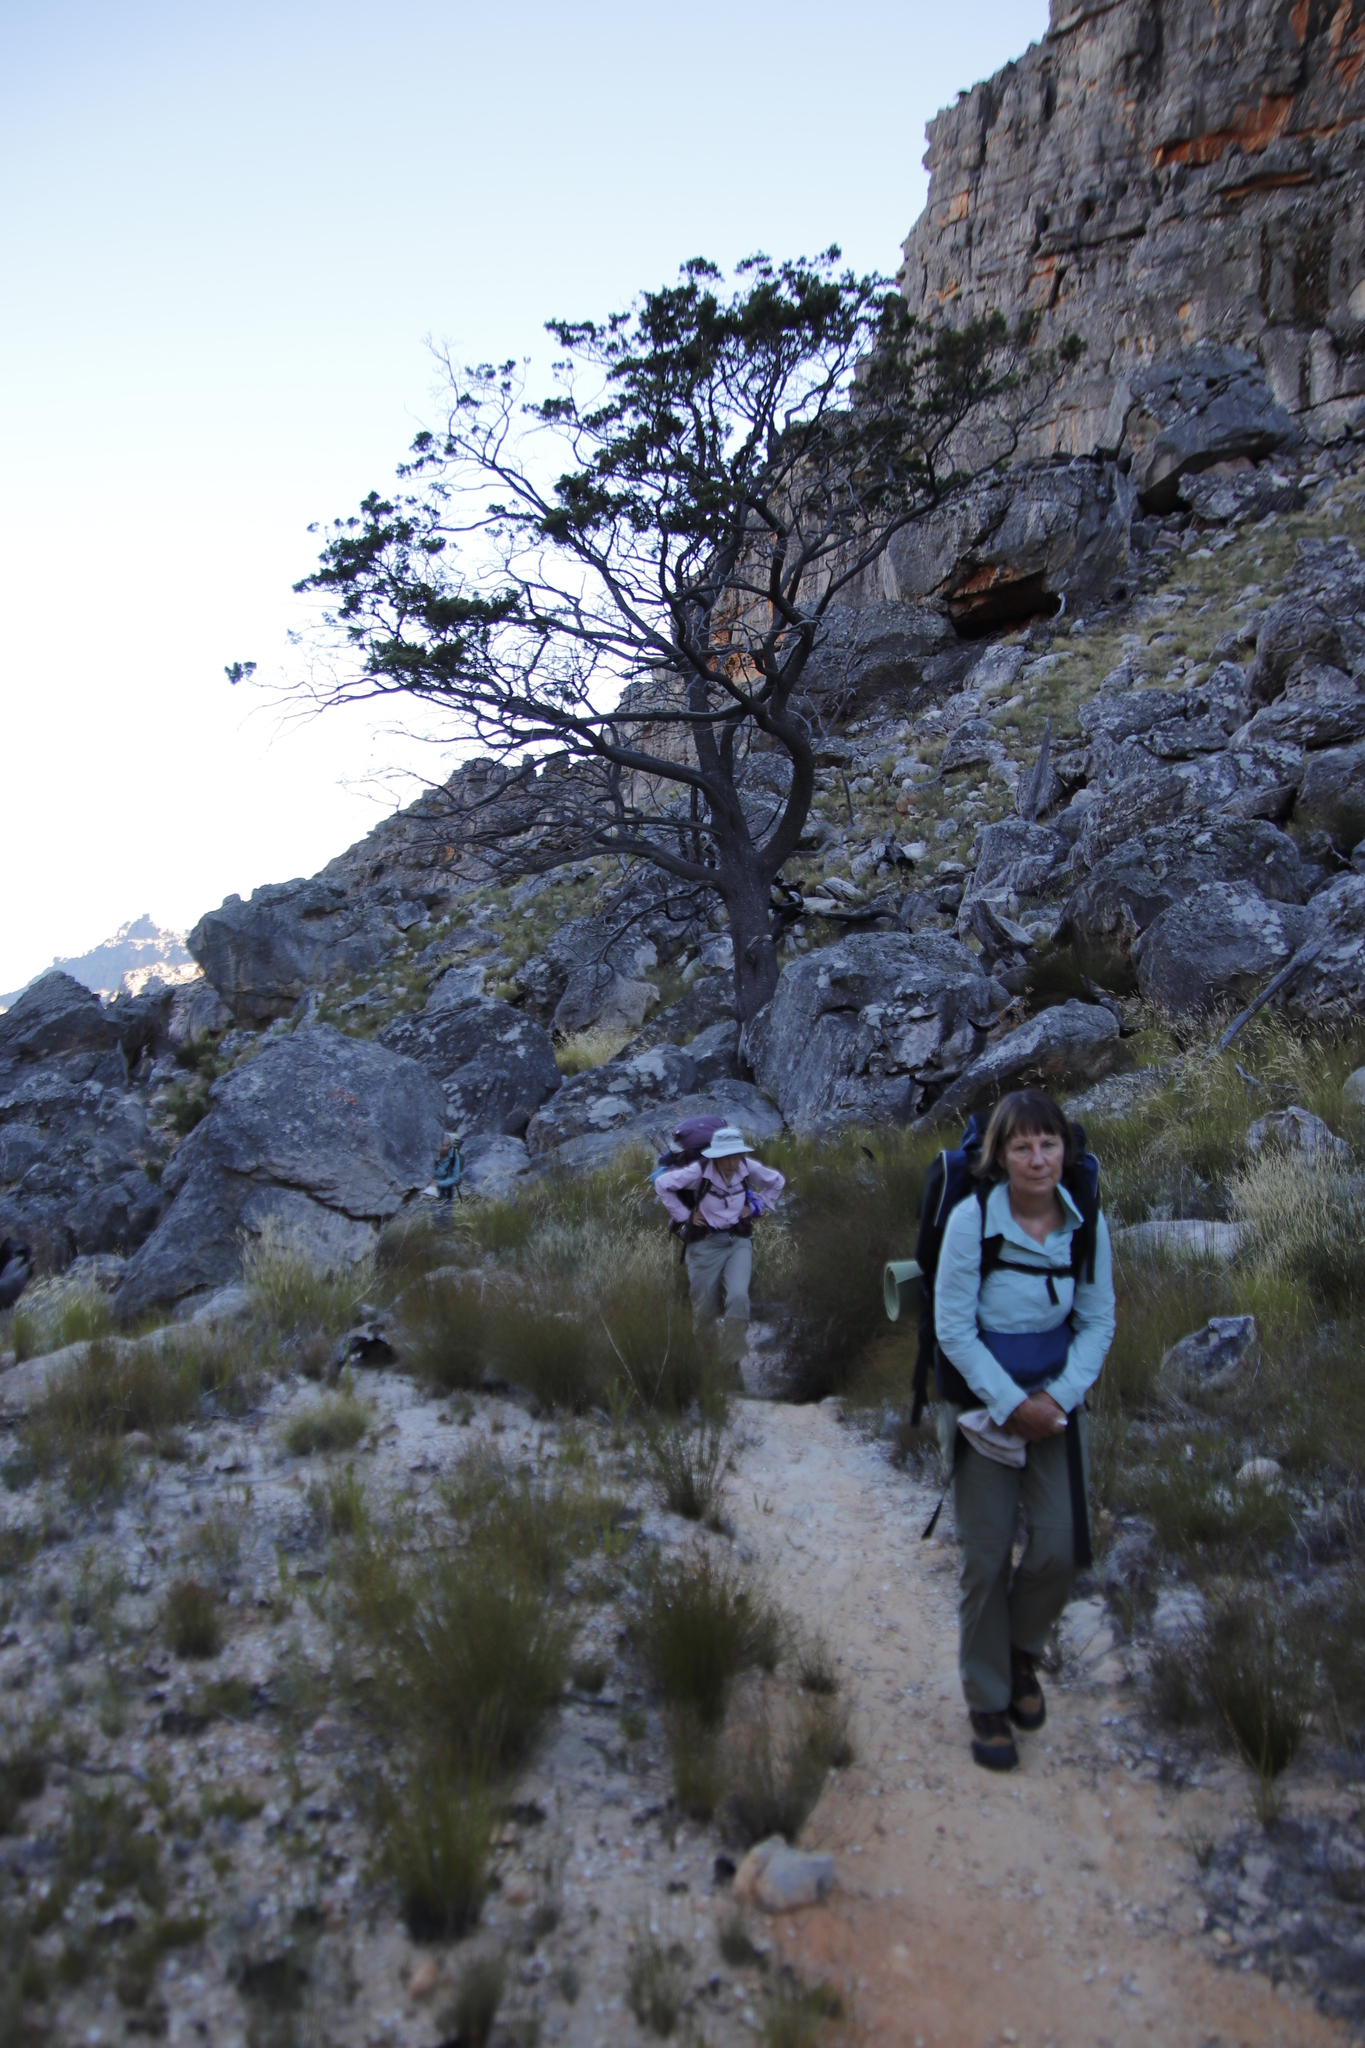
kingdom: Plantae
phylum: Tracheophyta
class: Pinopsida
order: Pinales
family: Cupressaceae
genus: Widdringtonia
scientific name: Widdringtonia nodiflora
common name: Cape cypress
